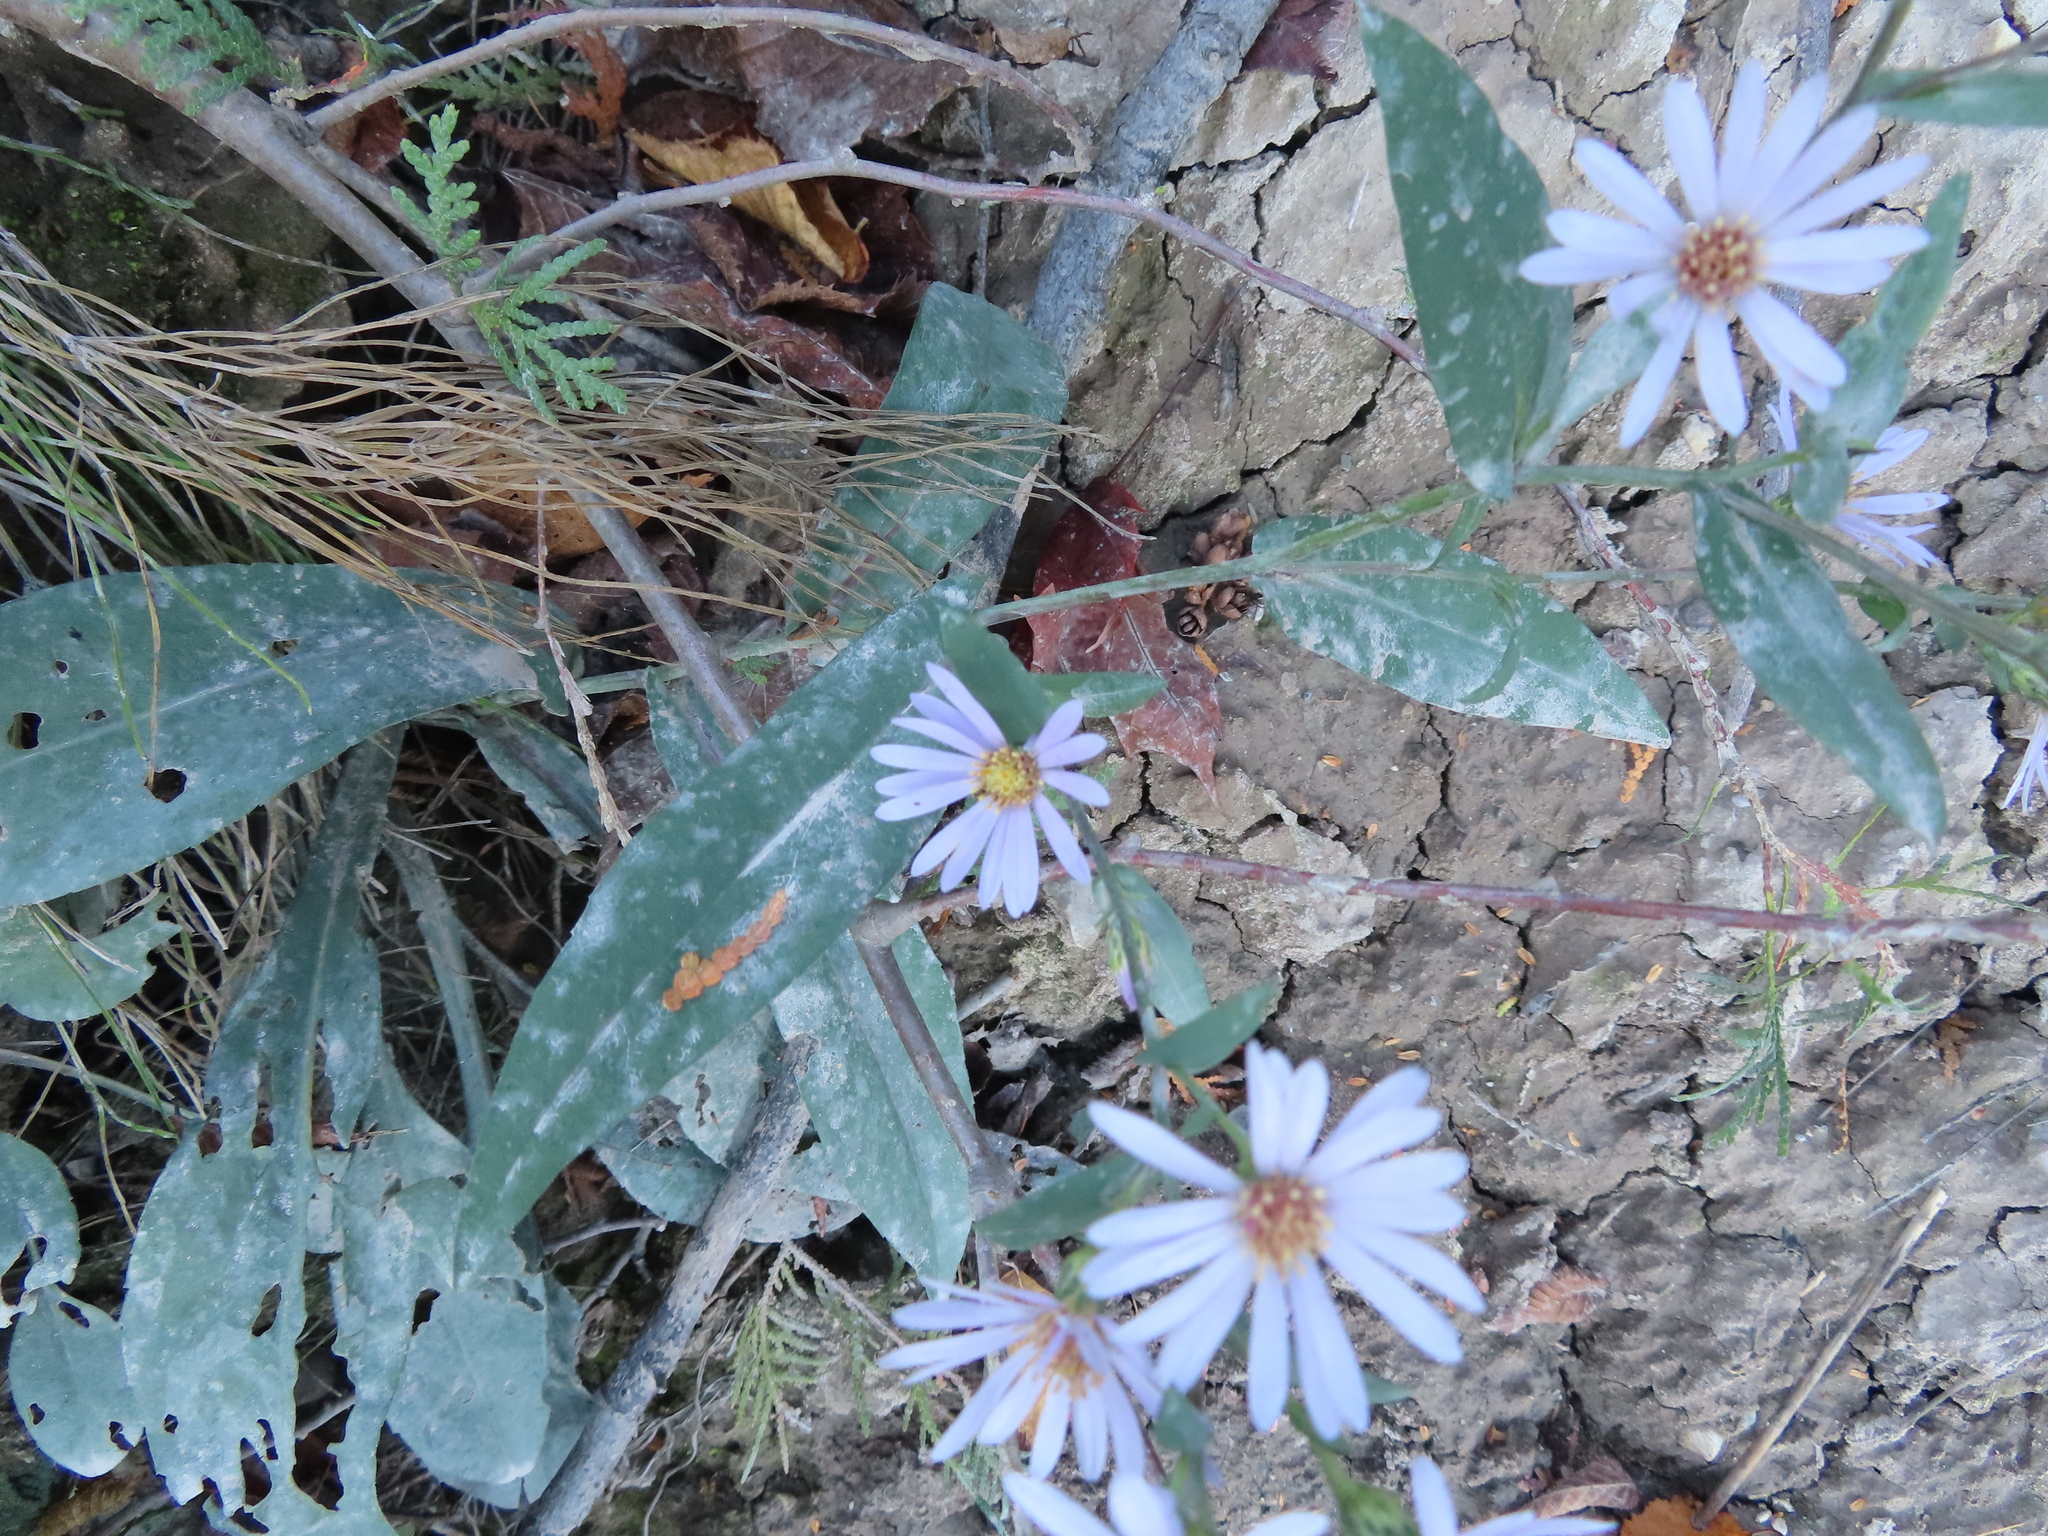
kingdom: Plantae
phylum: Tracheophyta
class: Magnoliopsida
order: Asterales
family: Asteraceae
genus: Symphyotrichum
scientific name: Symphyotrichum laeve
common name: Glaucous aster
